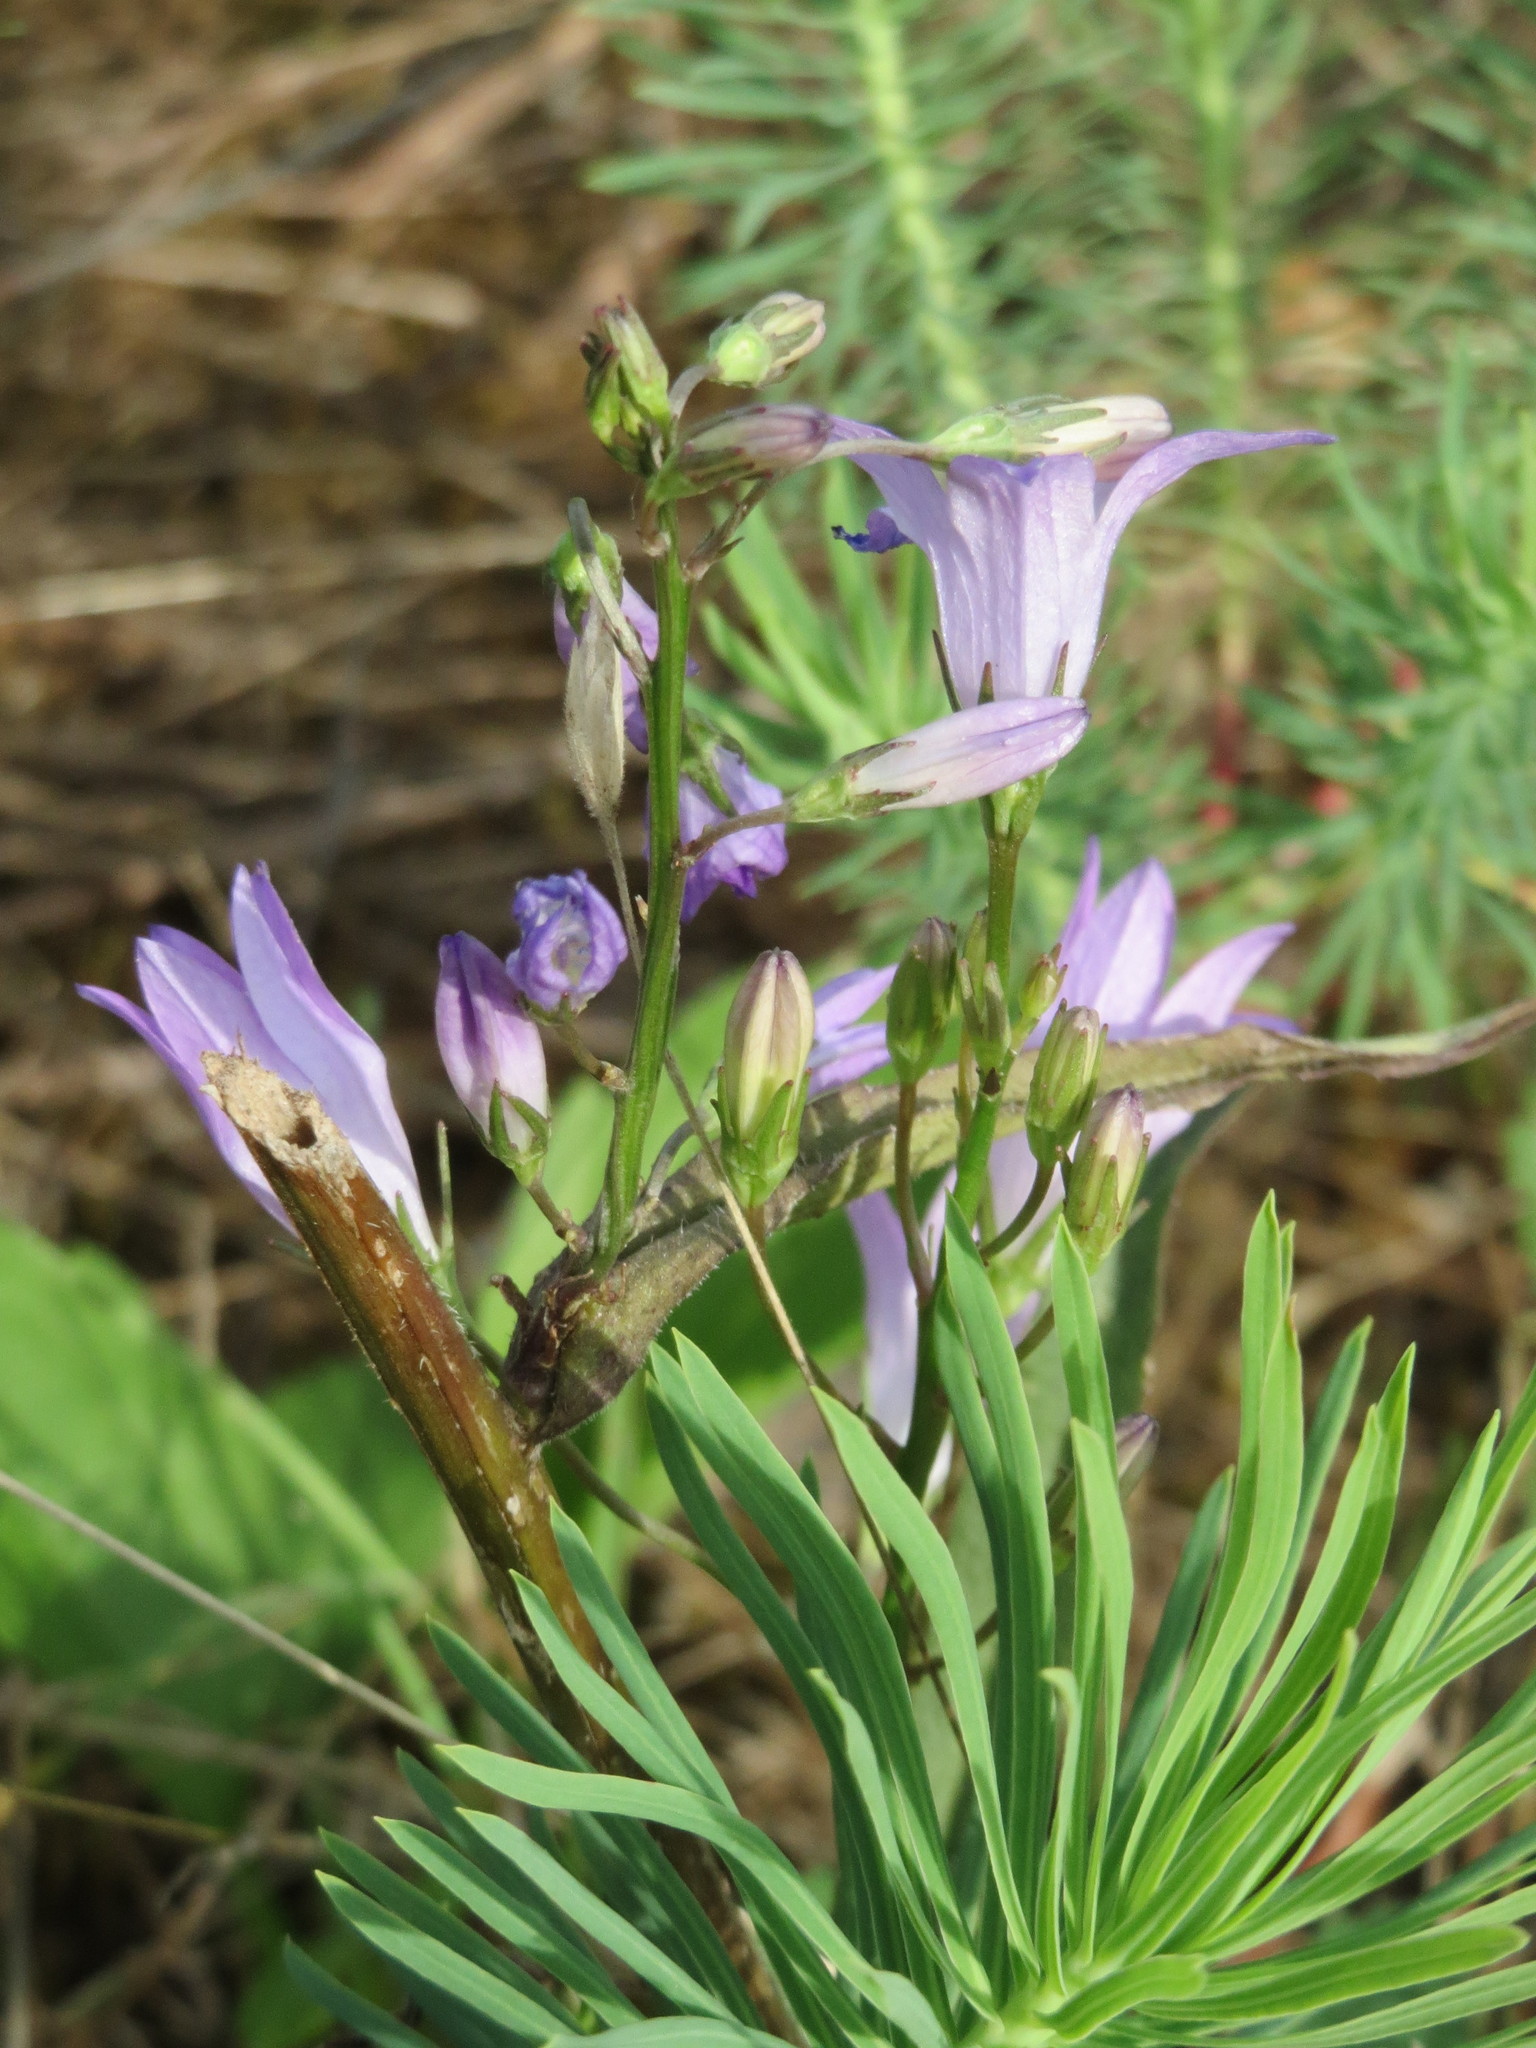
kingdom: Plantae
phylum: Tracheophyta
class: Magnoliopsida
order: Asterales
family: Campanulaceae
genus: Campanula
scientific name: Campanula rapunculus
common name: Rampion bellflower
